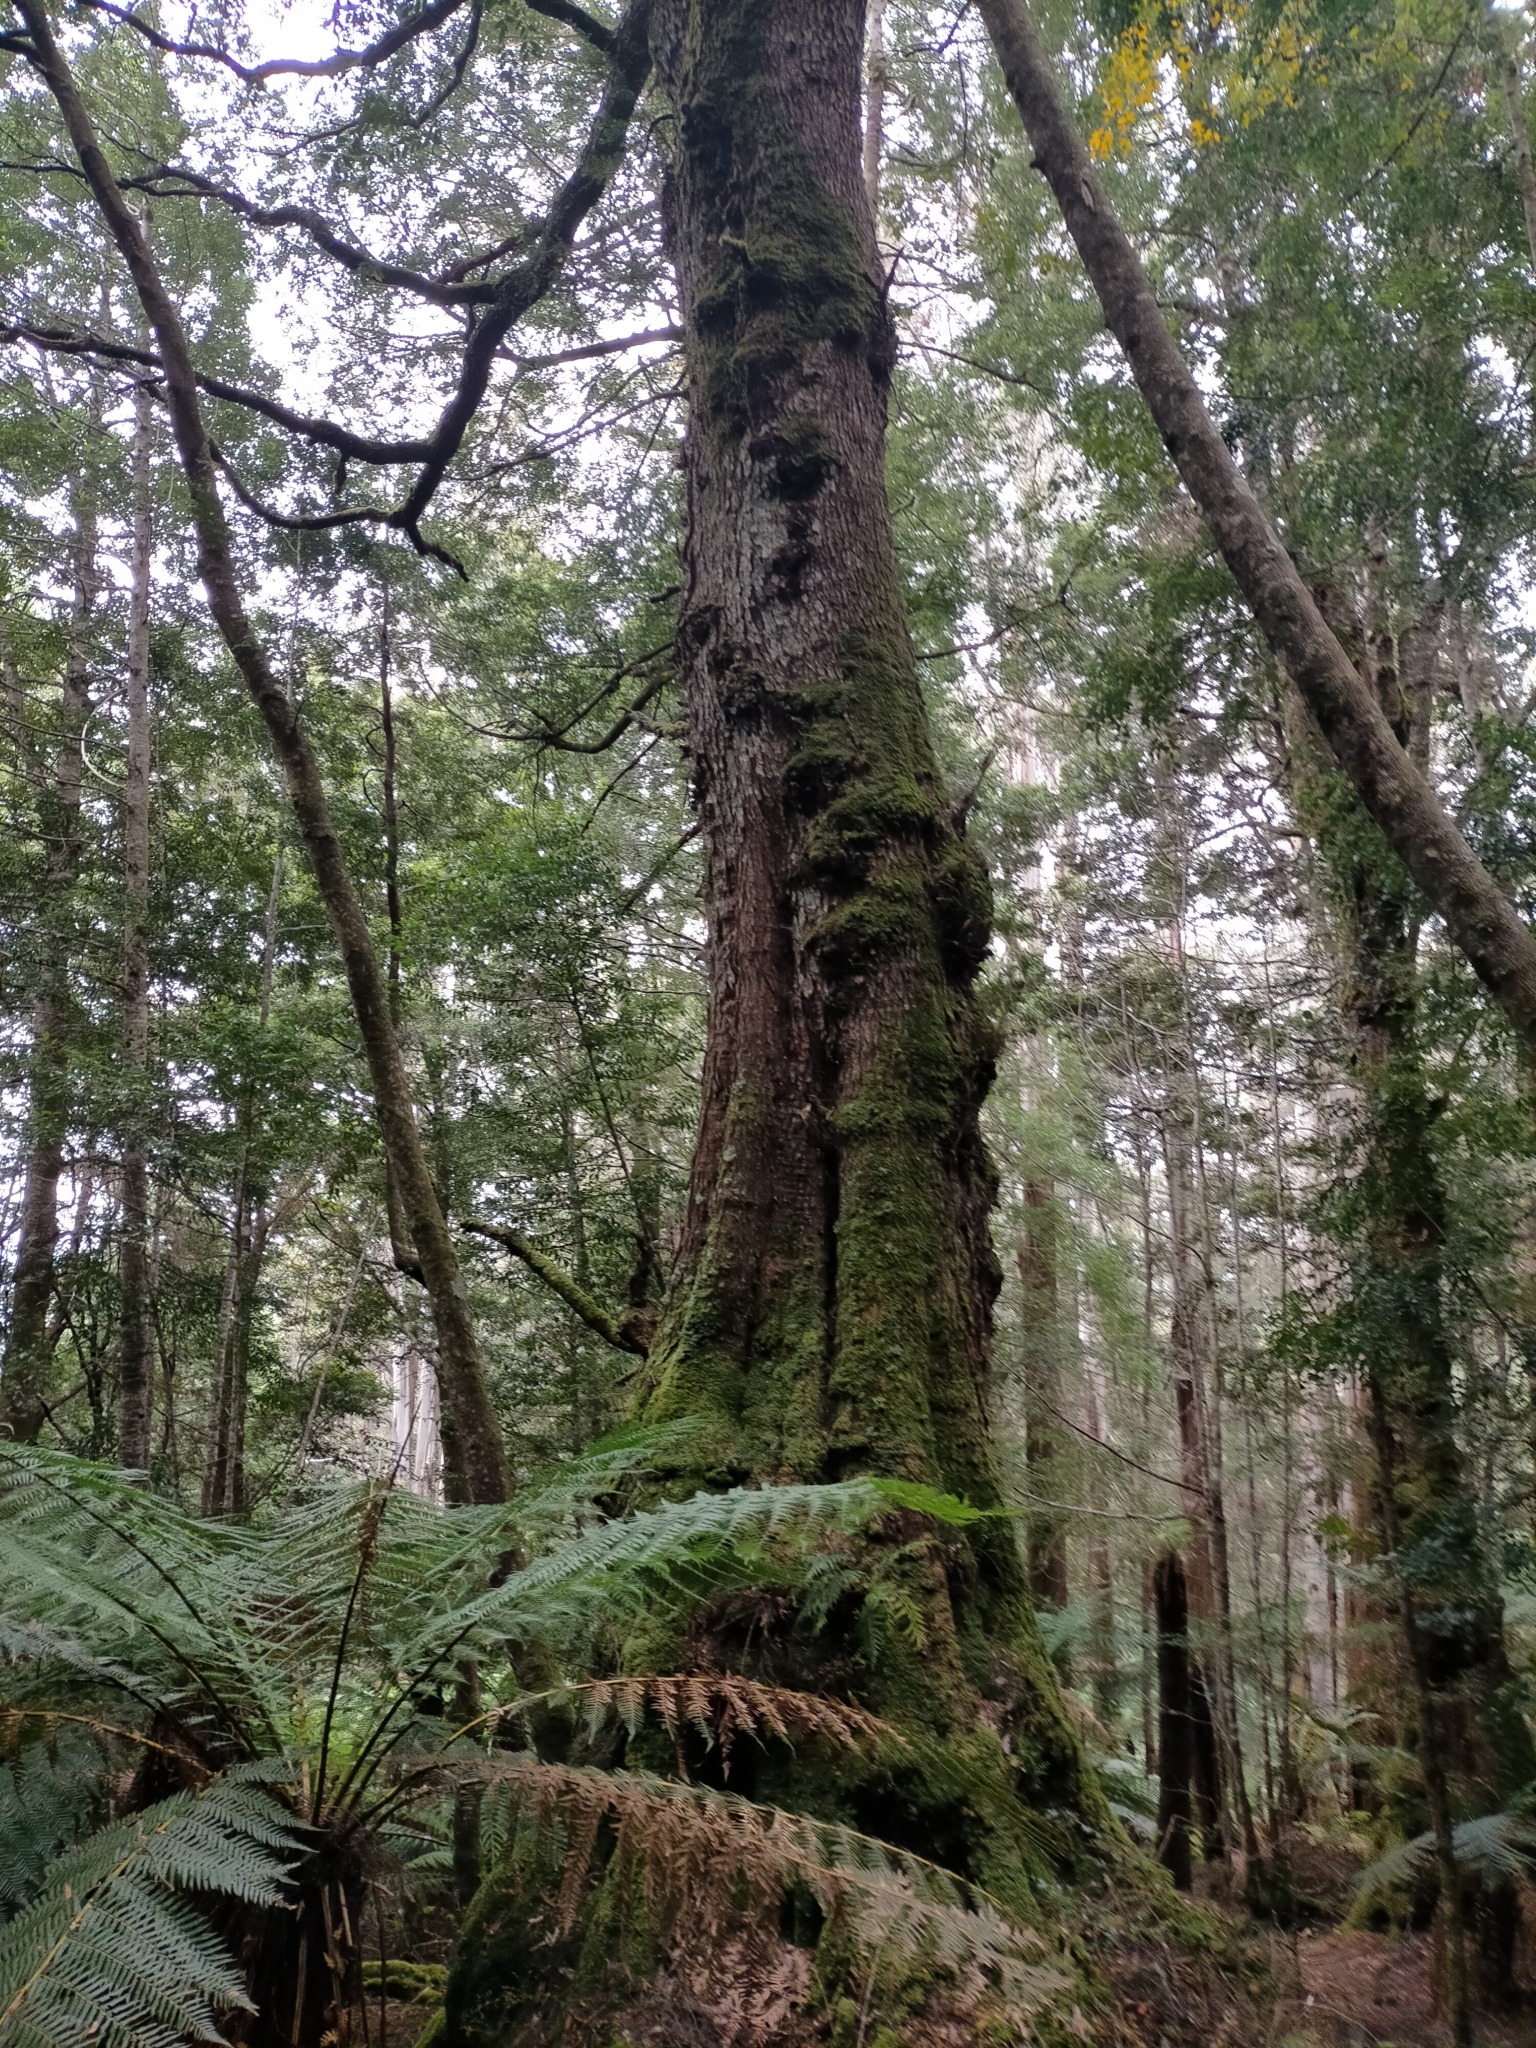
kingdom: Plantae
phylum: Tracheophyta
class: Magnoliopsida
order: Fagales
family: Nothofagaceae
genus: Nothofagus
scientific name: Nothofagus cunninghamii
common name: Myrtle beech
